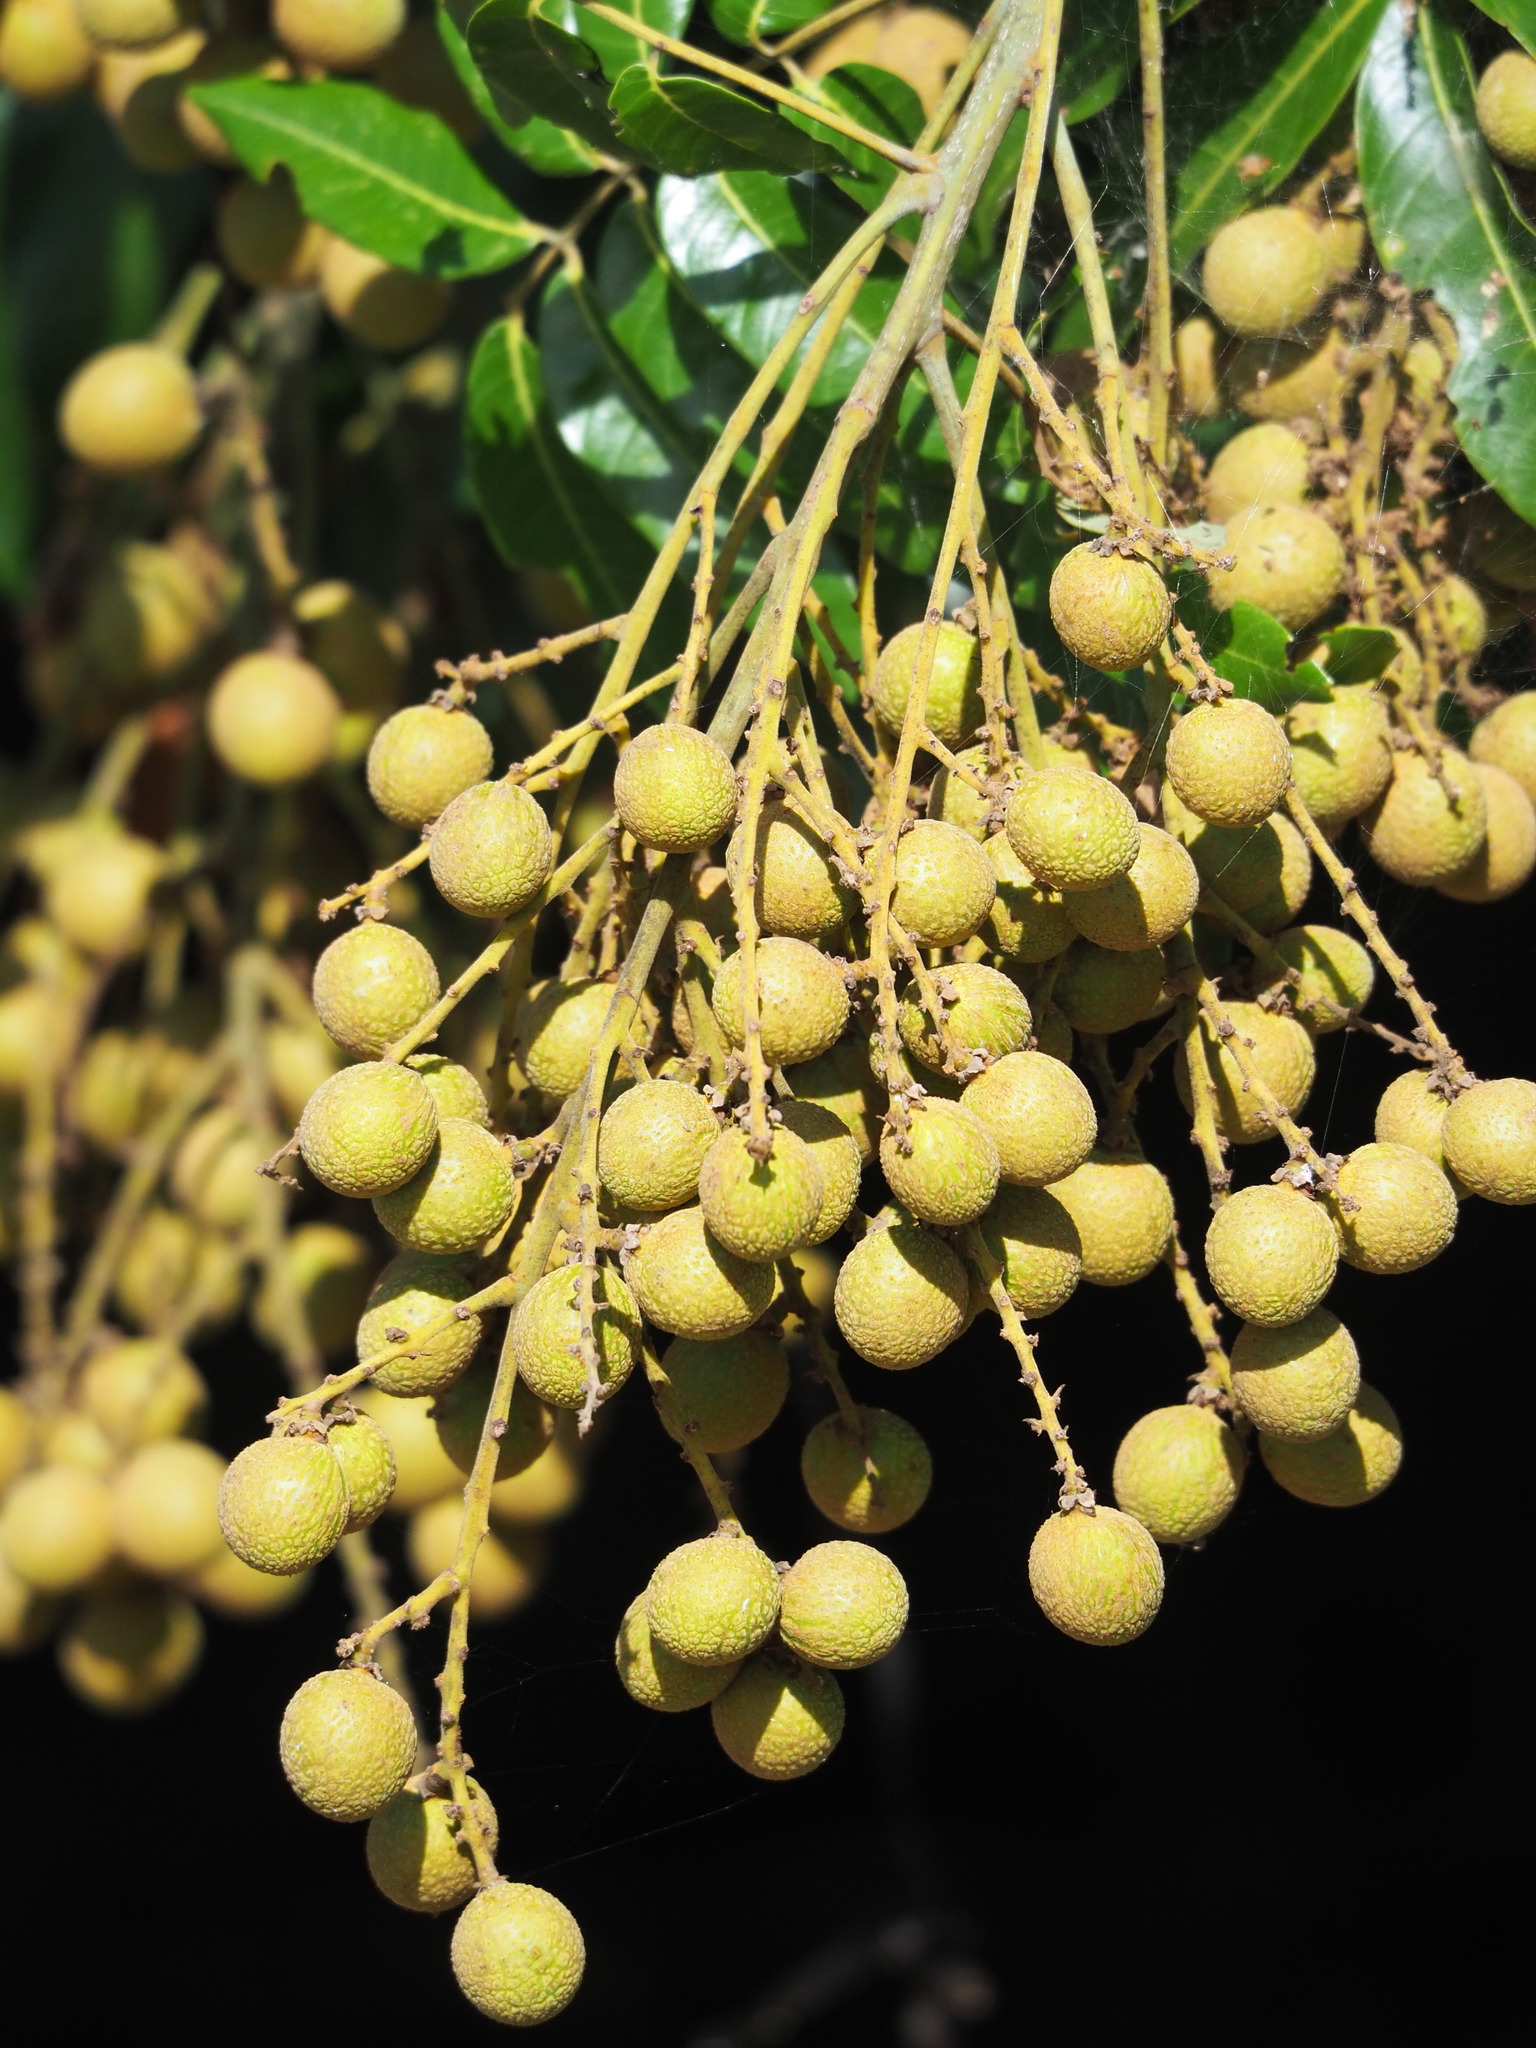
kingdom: Plantae
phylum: Tracheophyta
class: Magnoliopsida
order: Sapindales
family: Sapindaceae
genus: Dimocarpus
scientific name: Dimocarpus longan
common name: Longan
